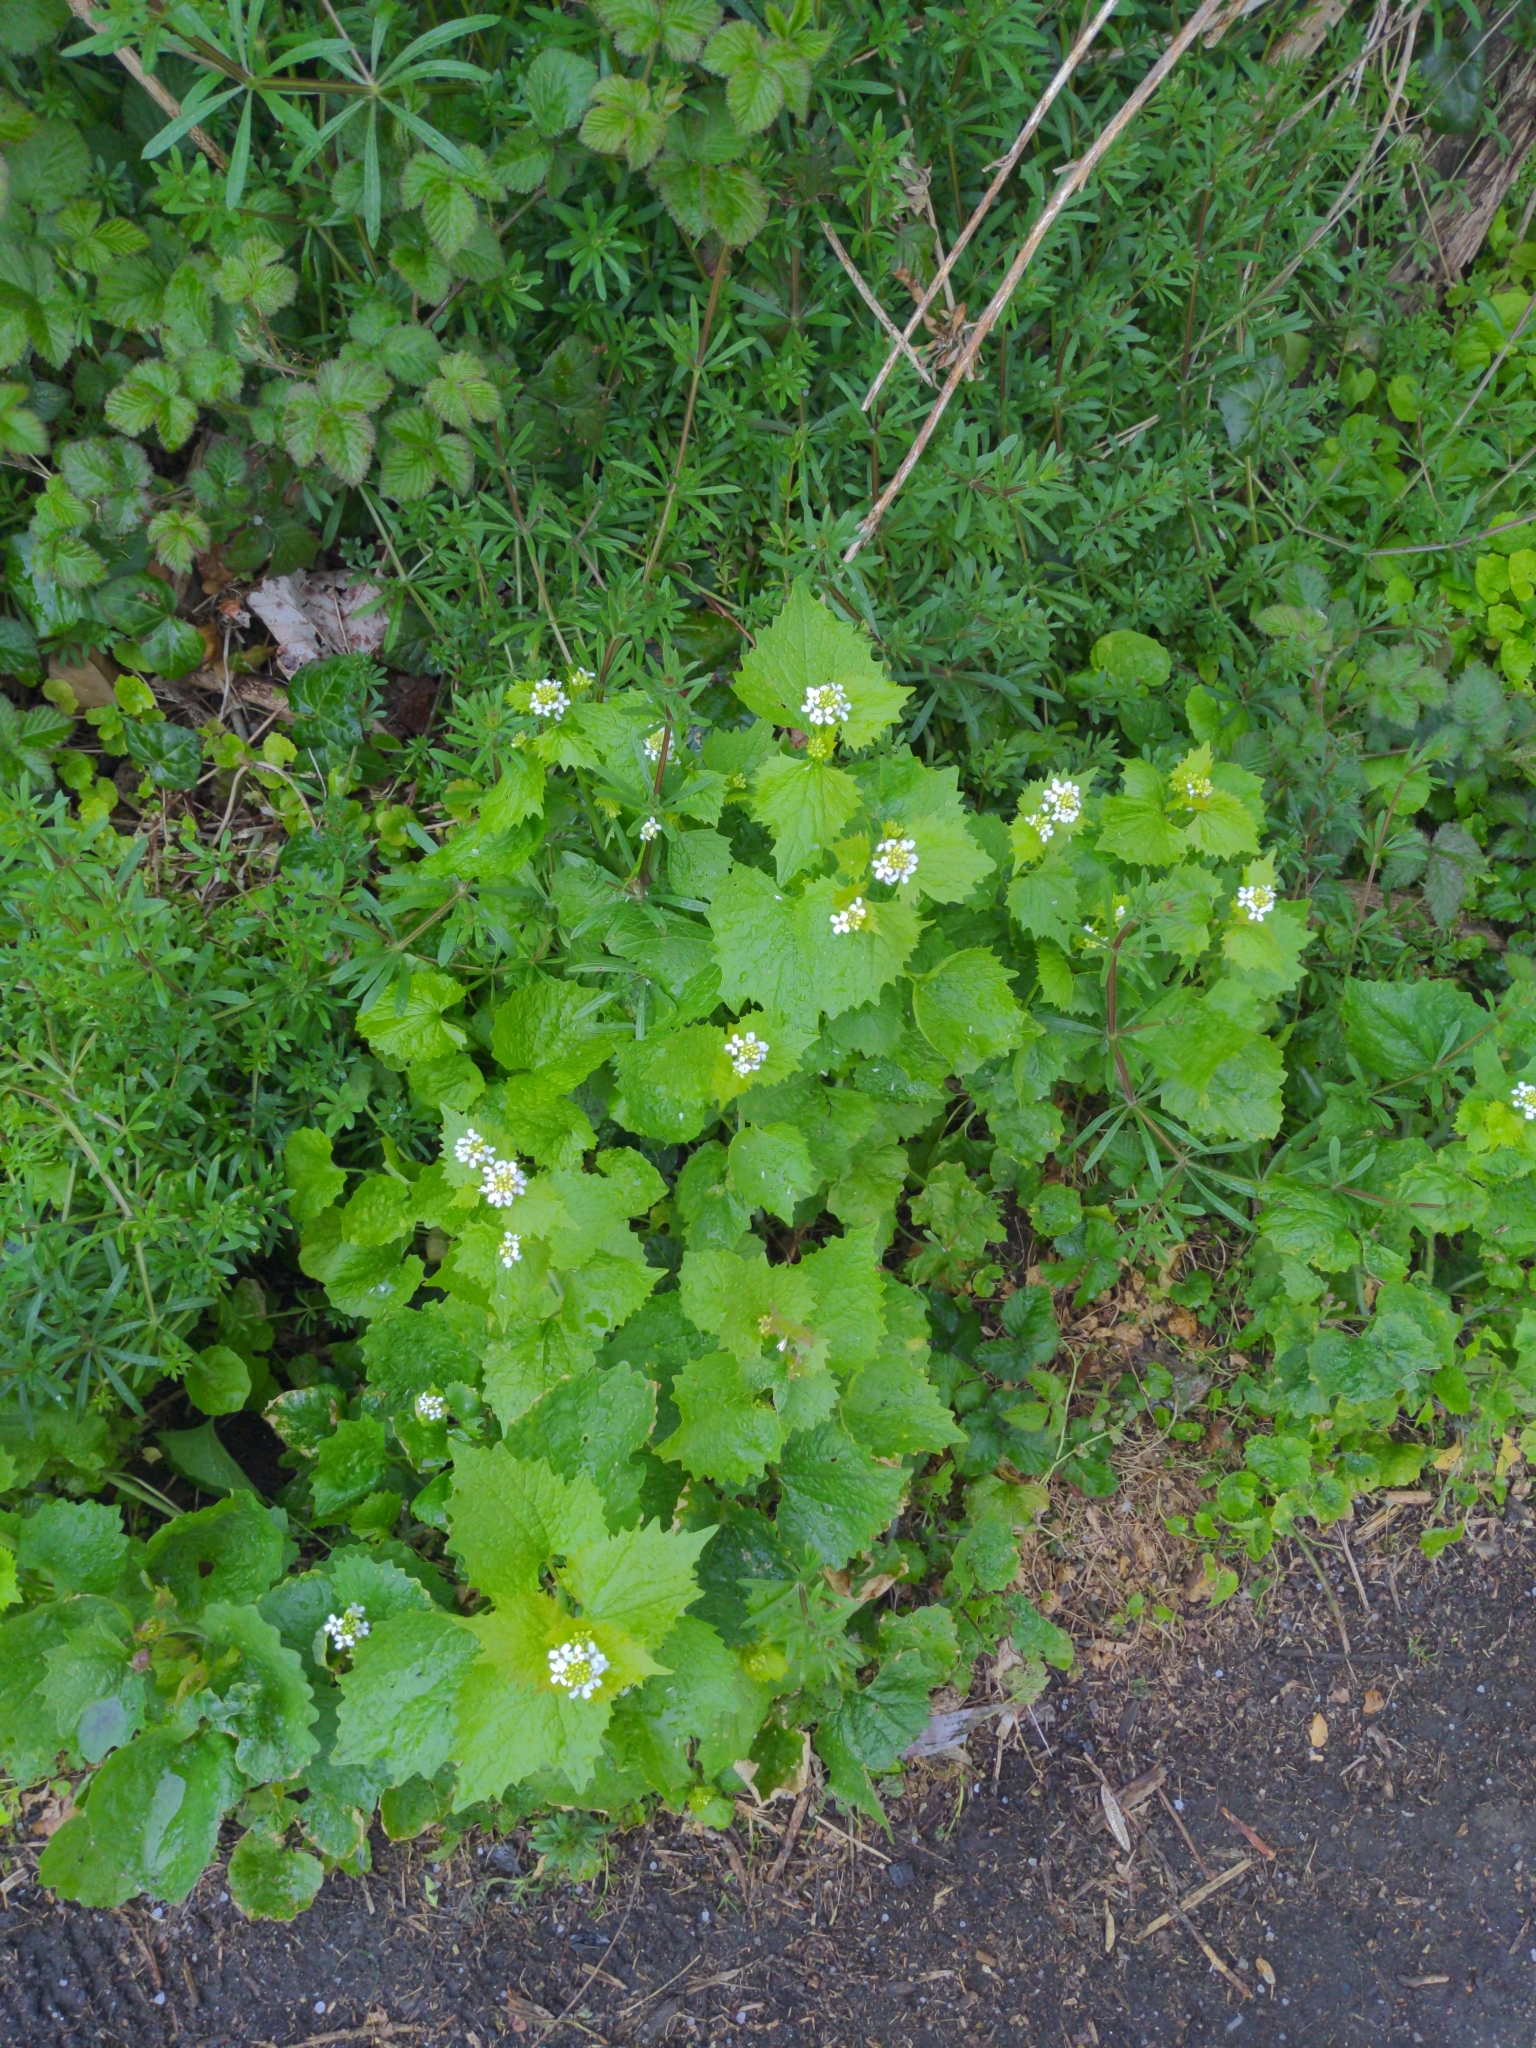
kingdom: Plantae
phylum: Tracheophyta
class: Magnoliopsida
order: Brassicales
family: Brassicaceae
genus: Alliaria
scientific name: Alliaria petiolata
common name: Garlic mustard
